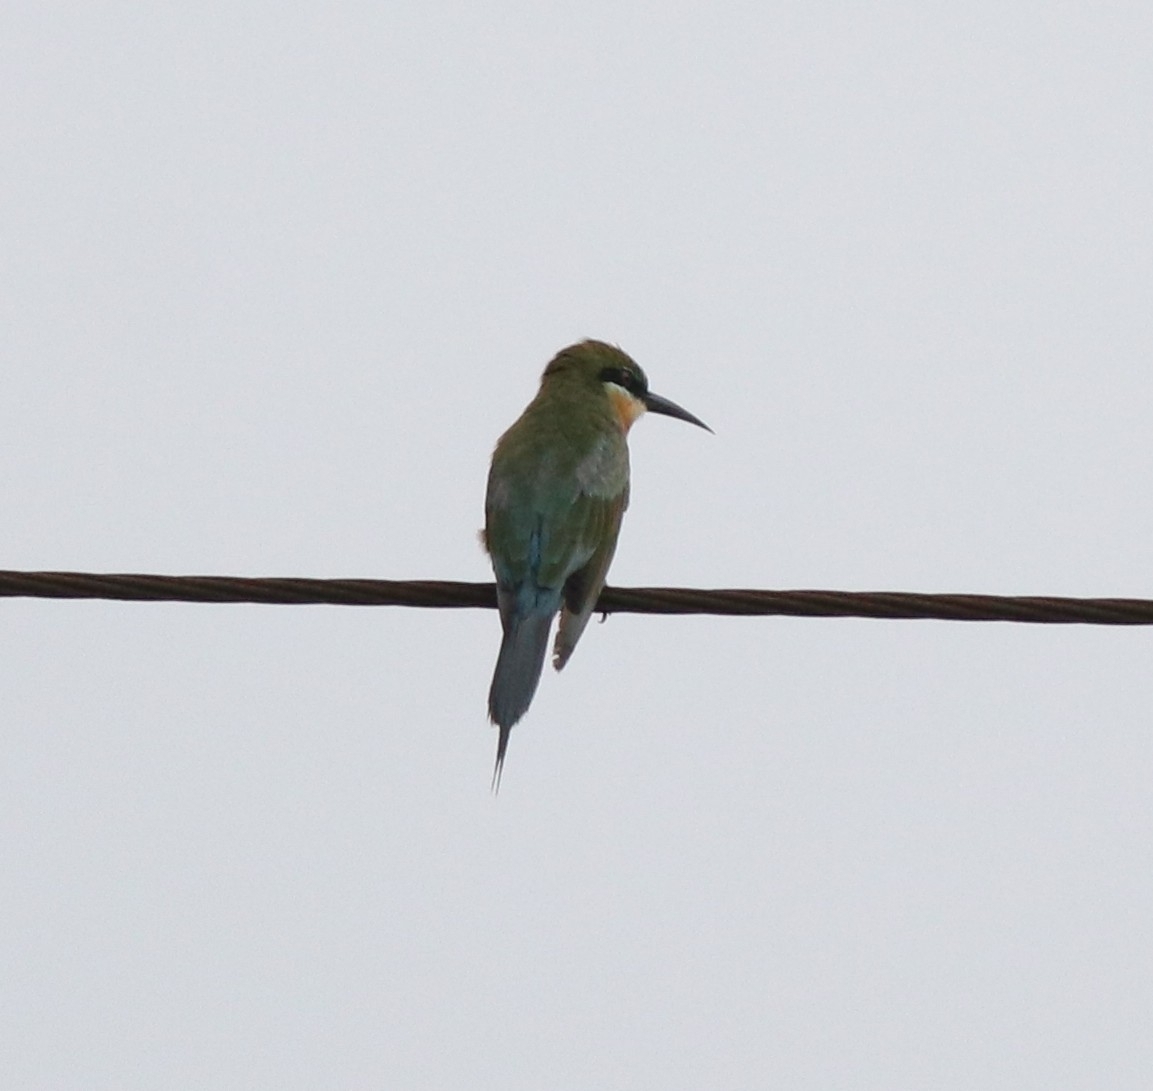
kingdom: Animalia
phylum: Chordata
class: Aves
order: Coraciiformes
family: Meropidae
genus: Merops
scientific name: Merops philippinus
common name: Blue-tailed bee-eater
